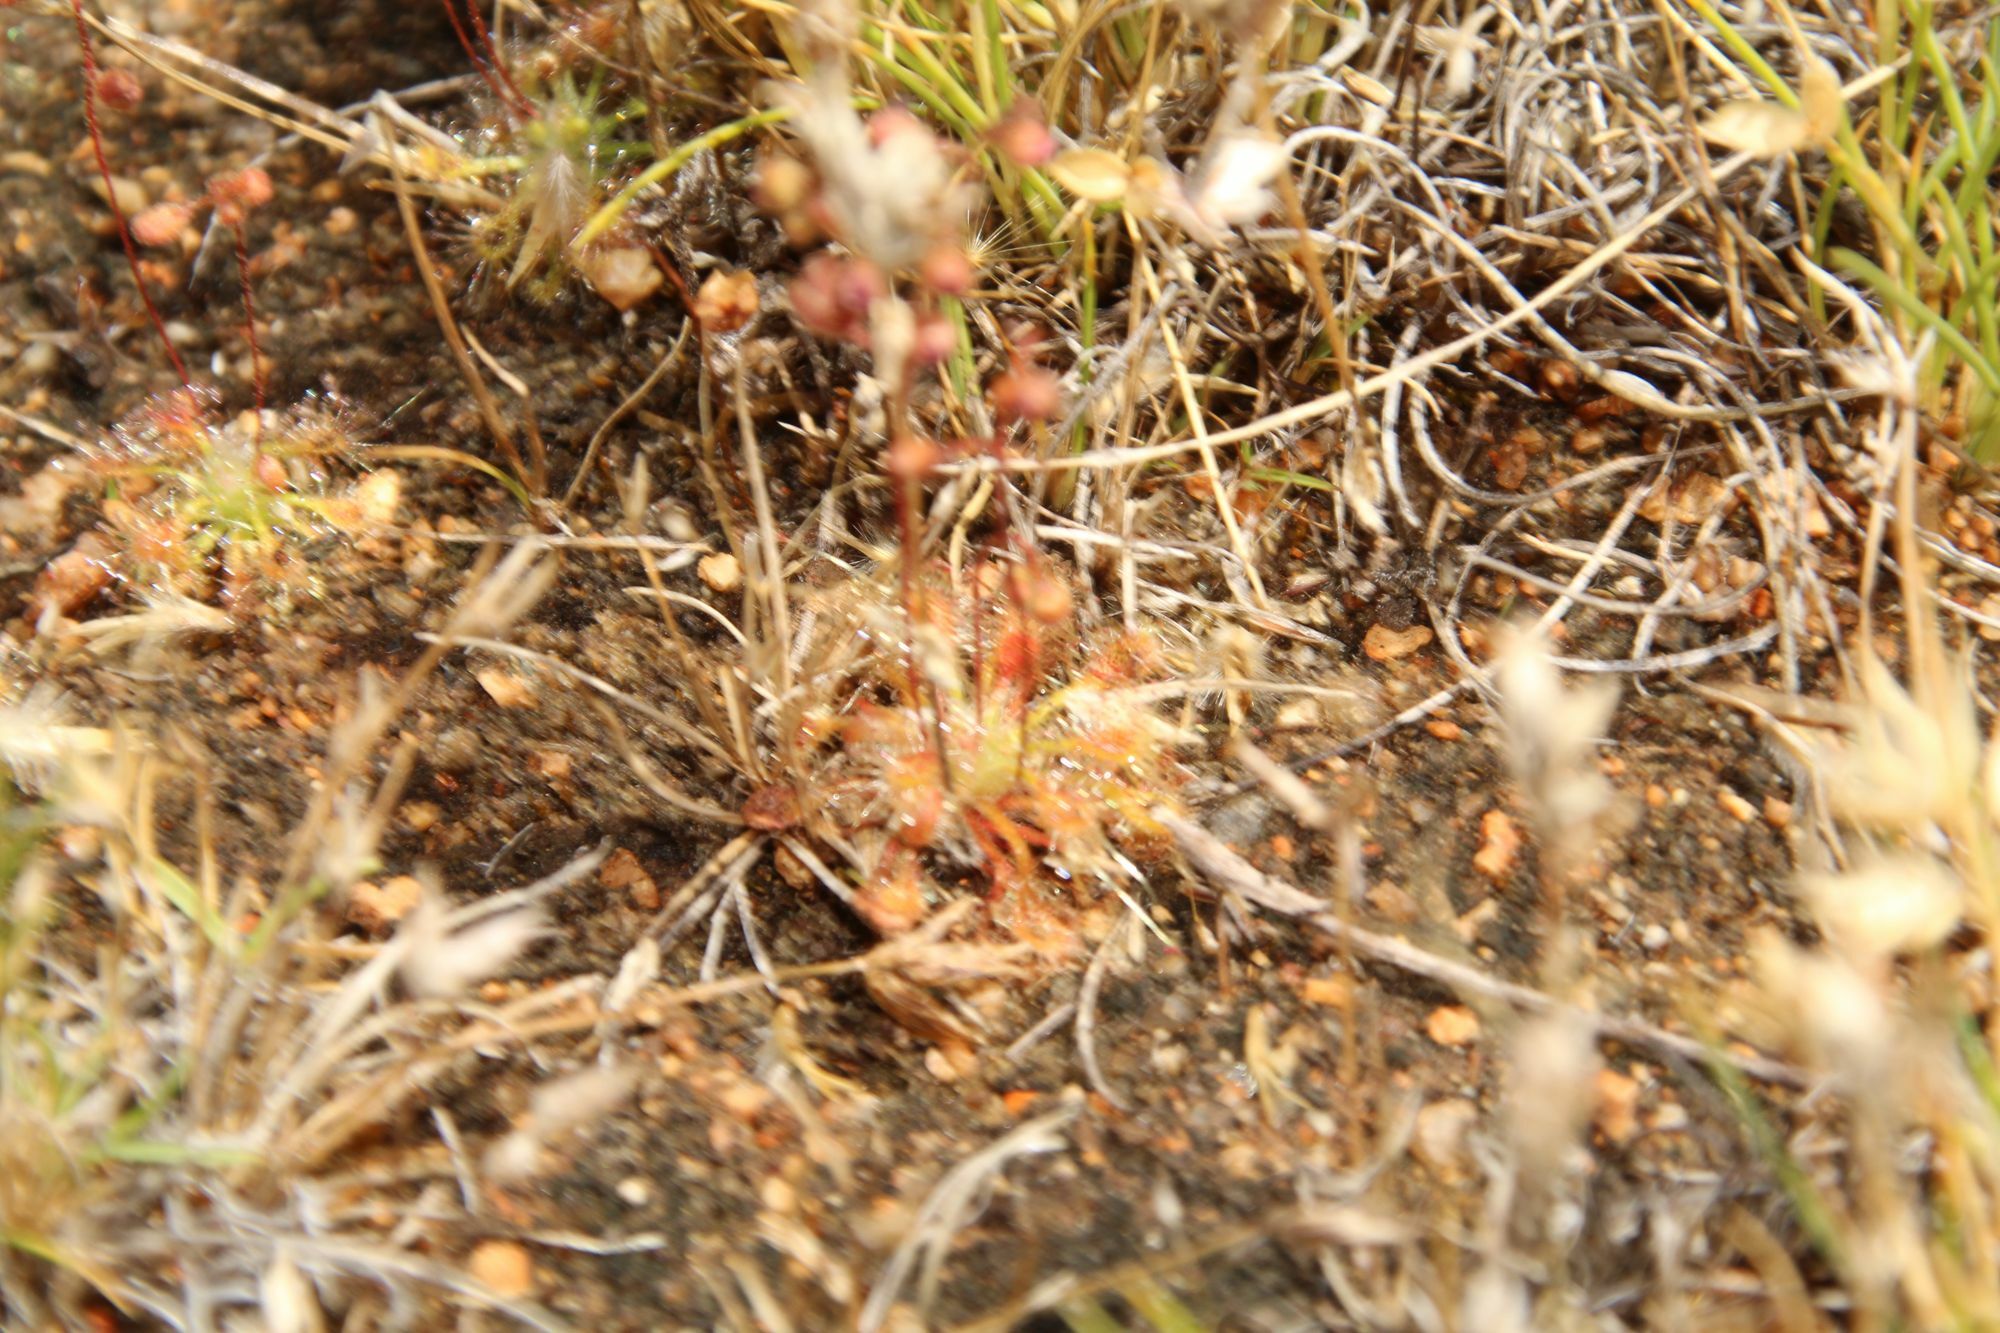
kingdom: Plantae
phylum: Tracheophyta
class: Magnoliopsida
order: Caryophyllales
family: Droseraceae
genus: Drosera
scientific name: Drosera nitidula
